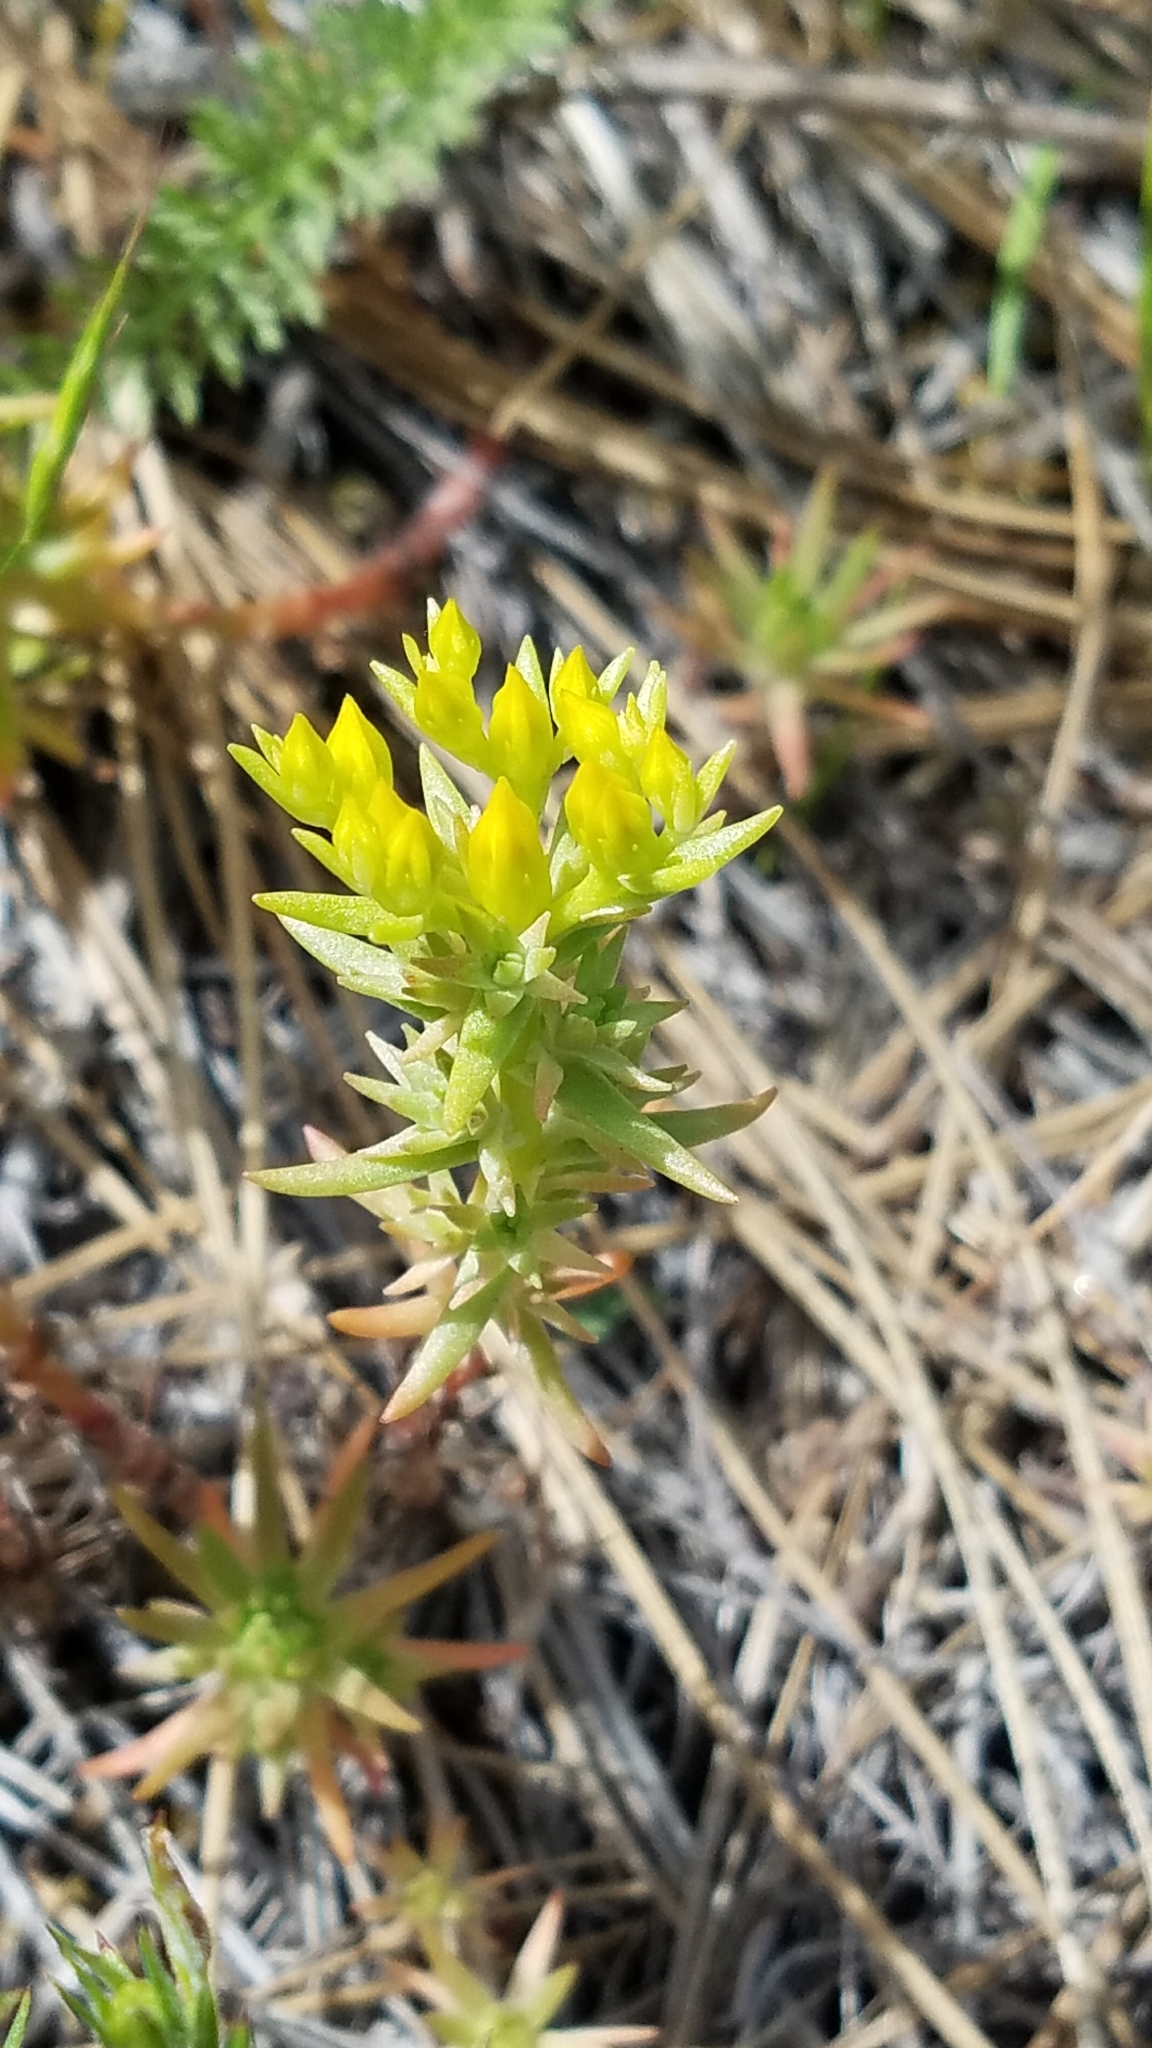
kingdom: Plantae
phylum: Tracheophyta
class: Magnoliopsida
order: Saxifragales
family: Crassulaceae
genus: Sedum
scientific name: Sedum stenopetalum
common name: Narrow-petaled stonecrop
